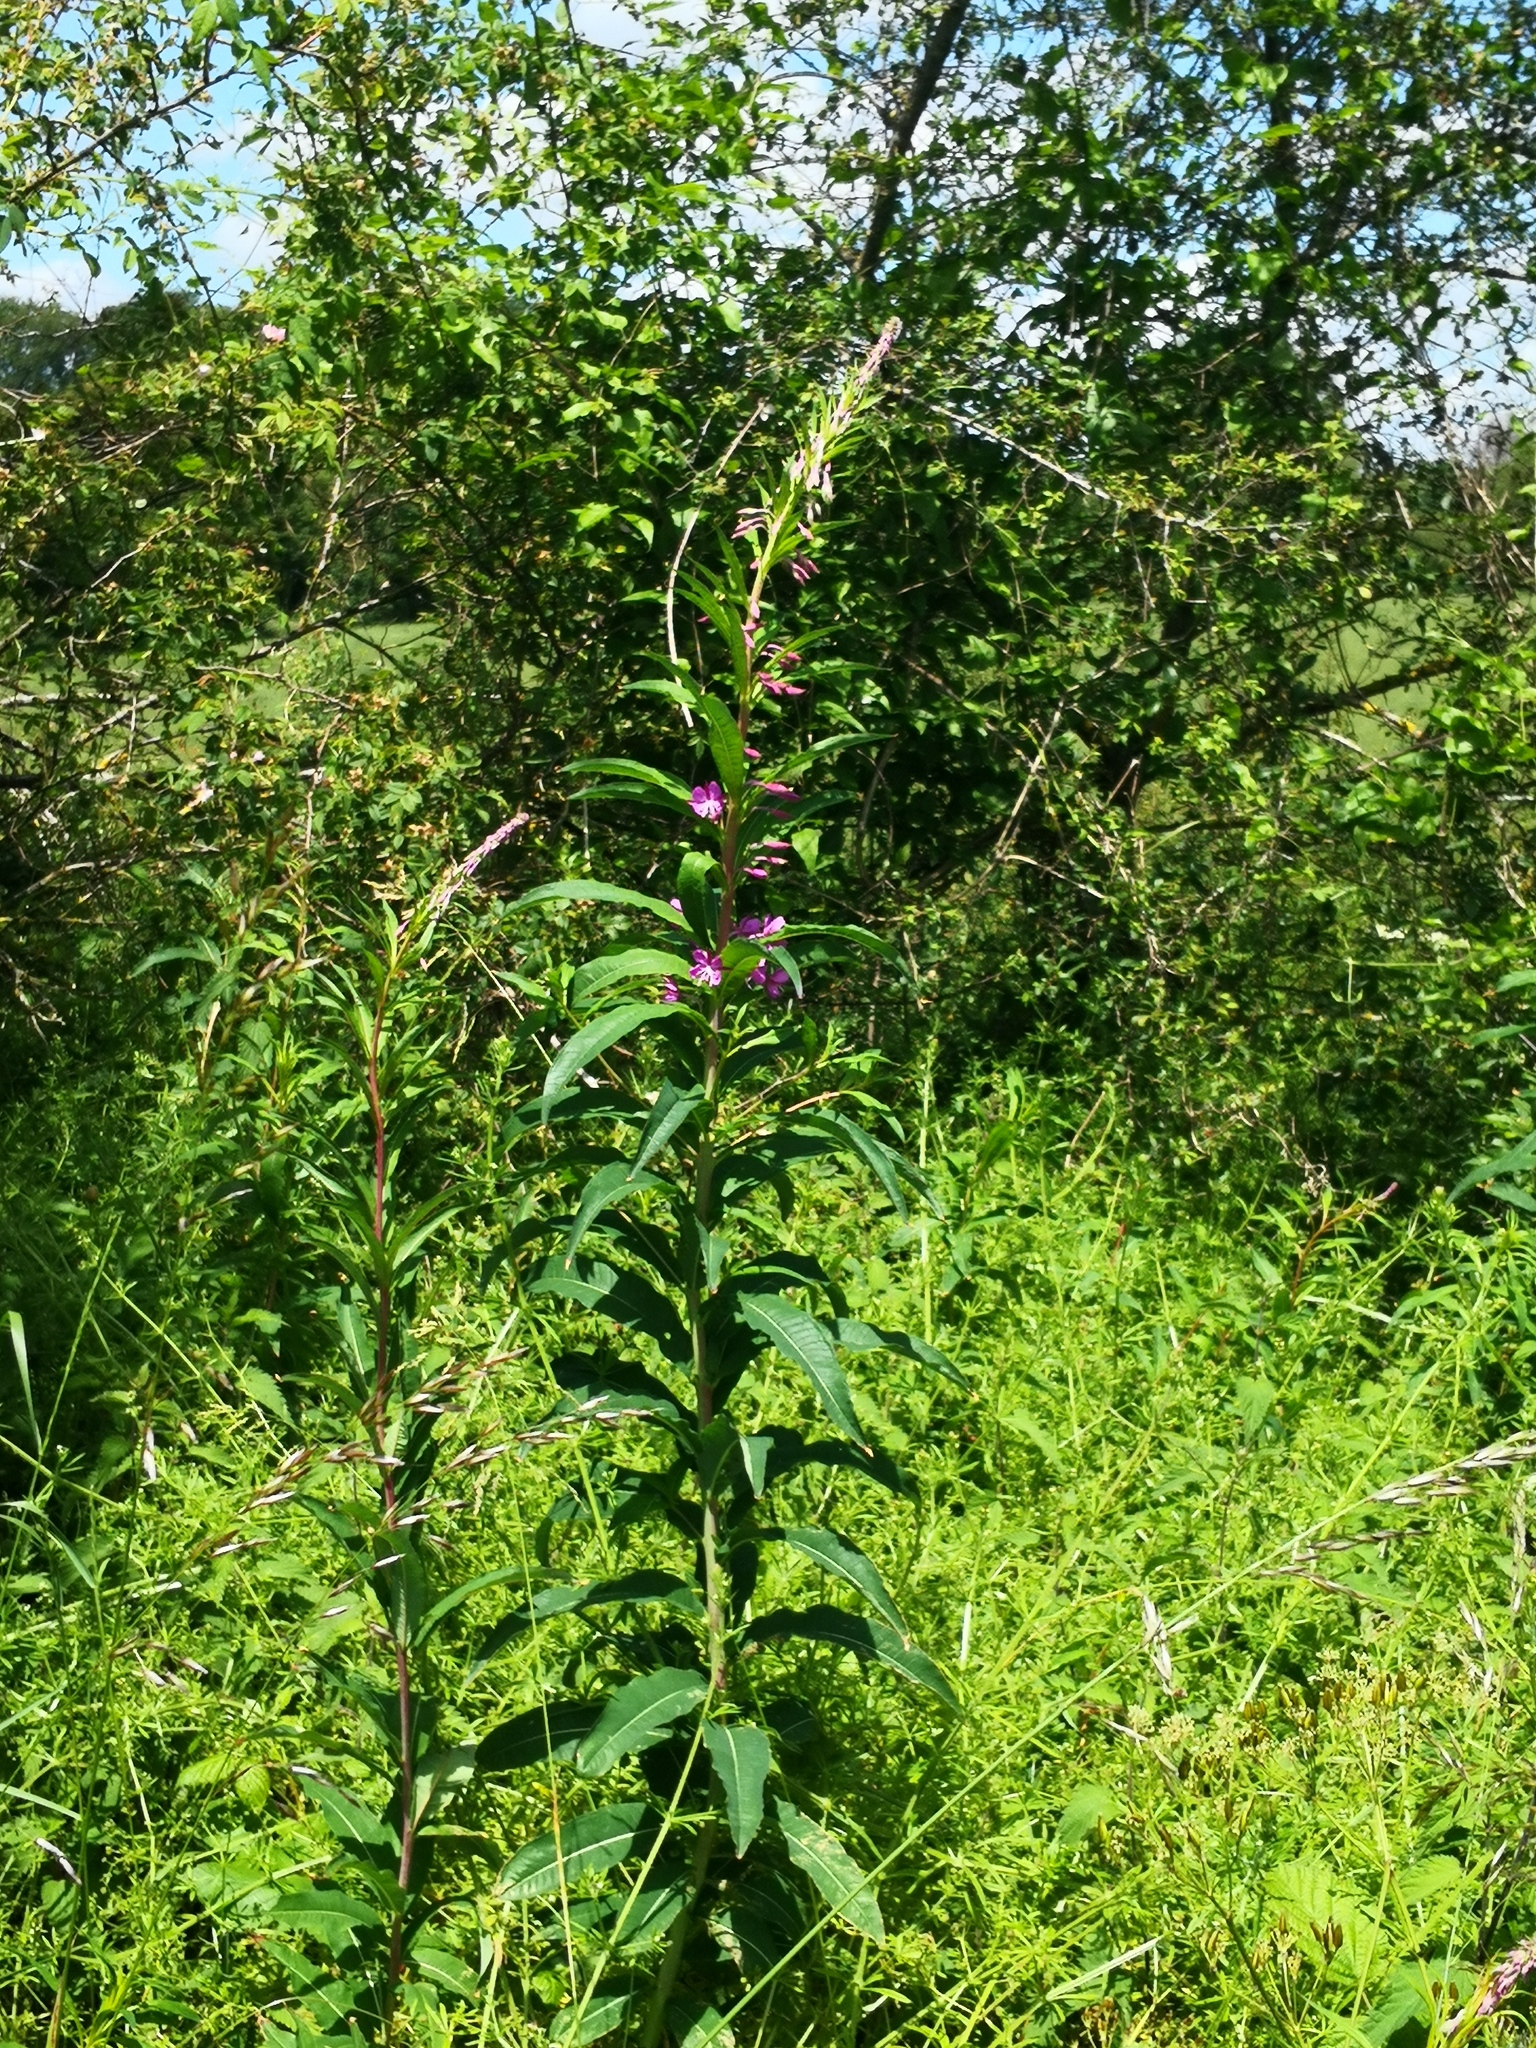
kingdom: Plantae
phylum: Tracheophyta
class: Magnoliopsida
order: Myrtales
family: Onagraceae
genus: Chamaenerion
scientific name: Chamaenerion angustifolium
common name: Fireweed
